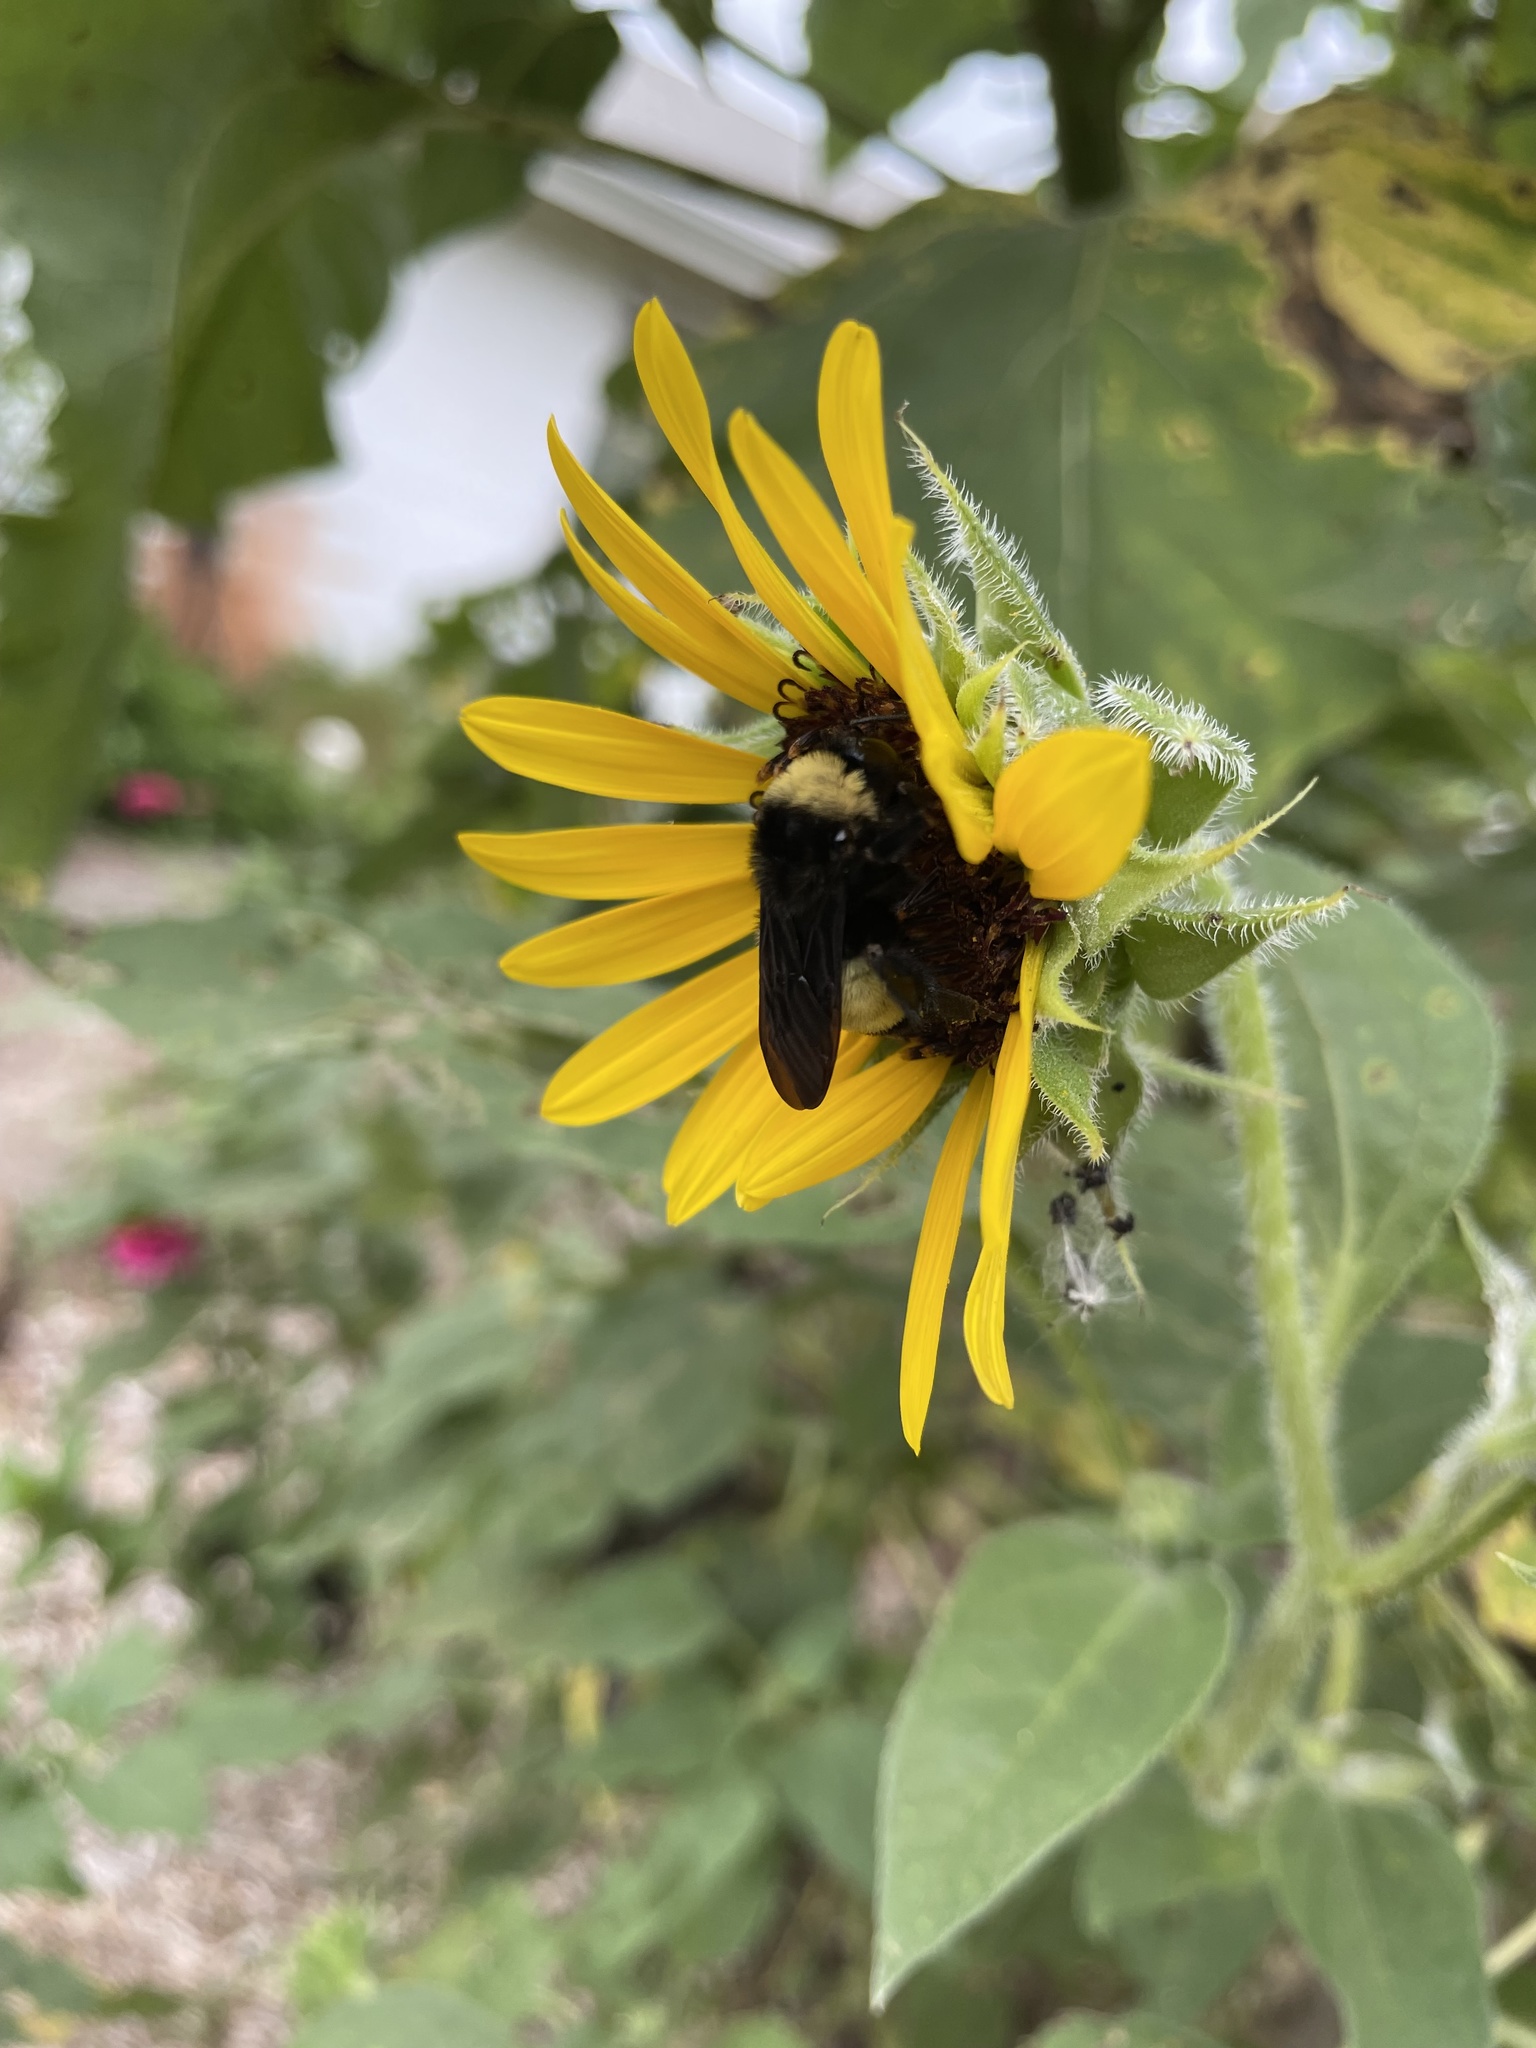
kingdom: Animalia
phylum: Arthropoda
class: Insecta
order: Hymenoptera
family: Apidae
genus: Bombus
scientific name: Bombus pensylvanicus
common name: Bumble bee
